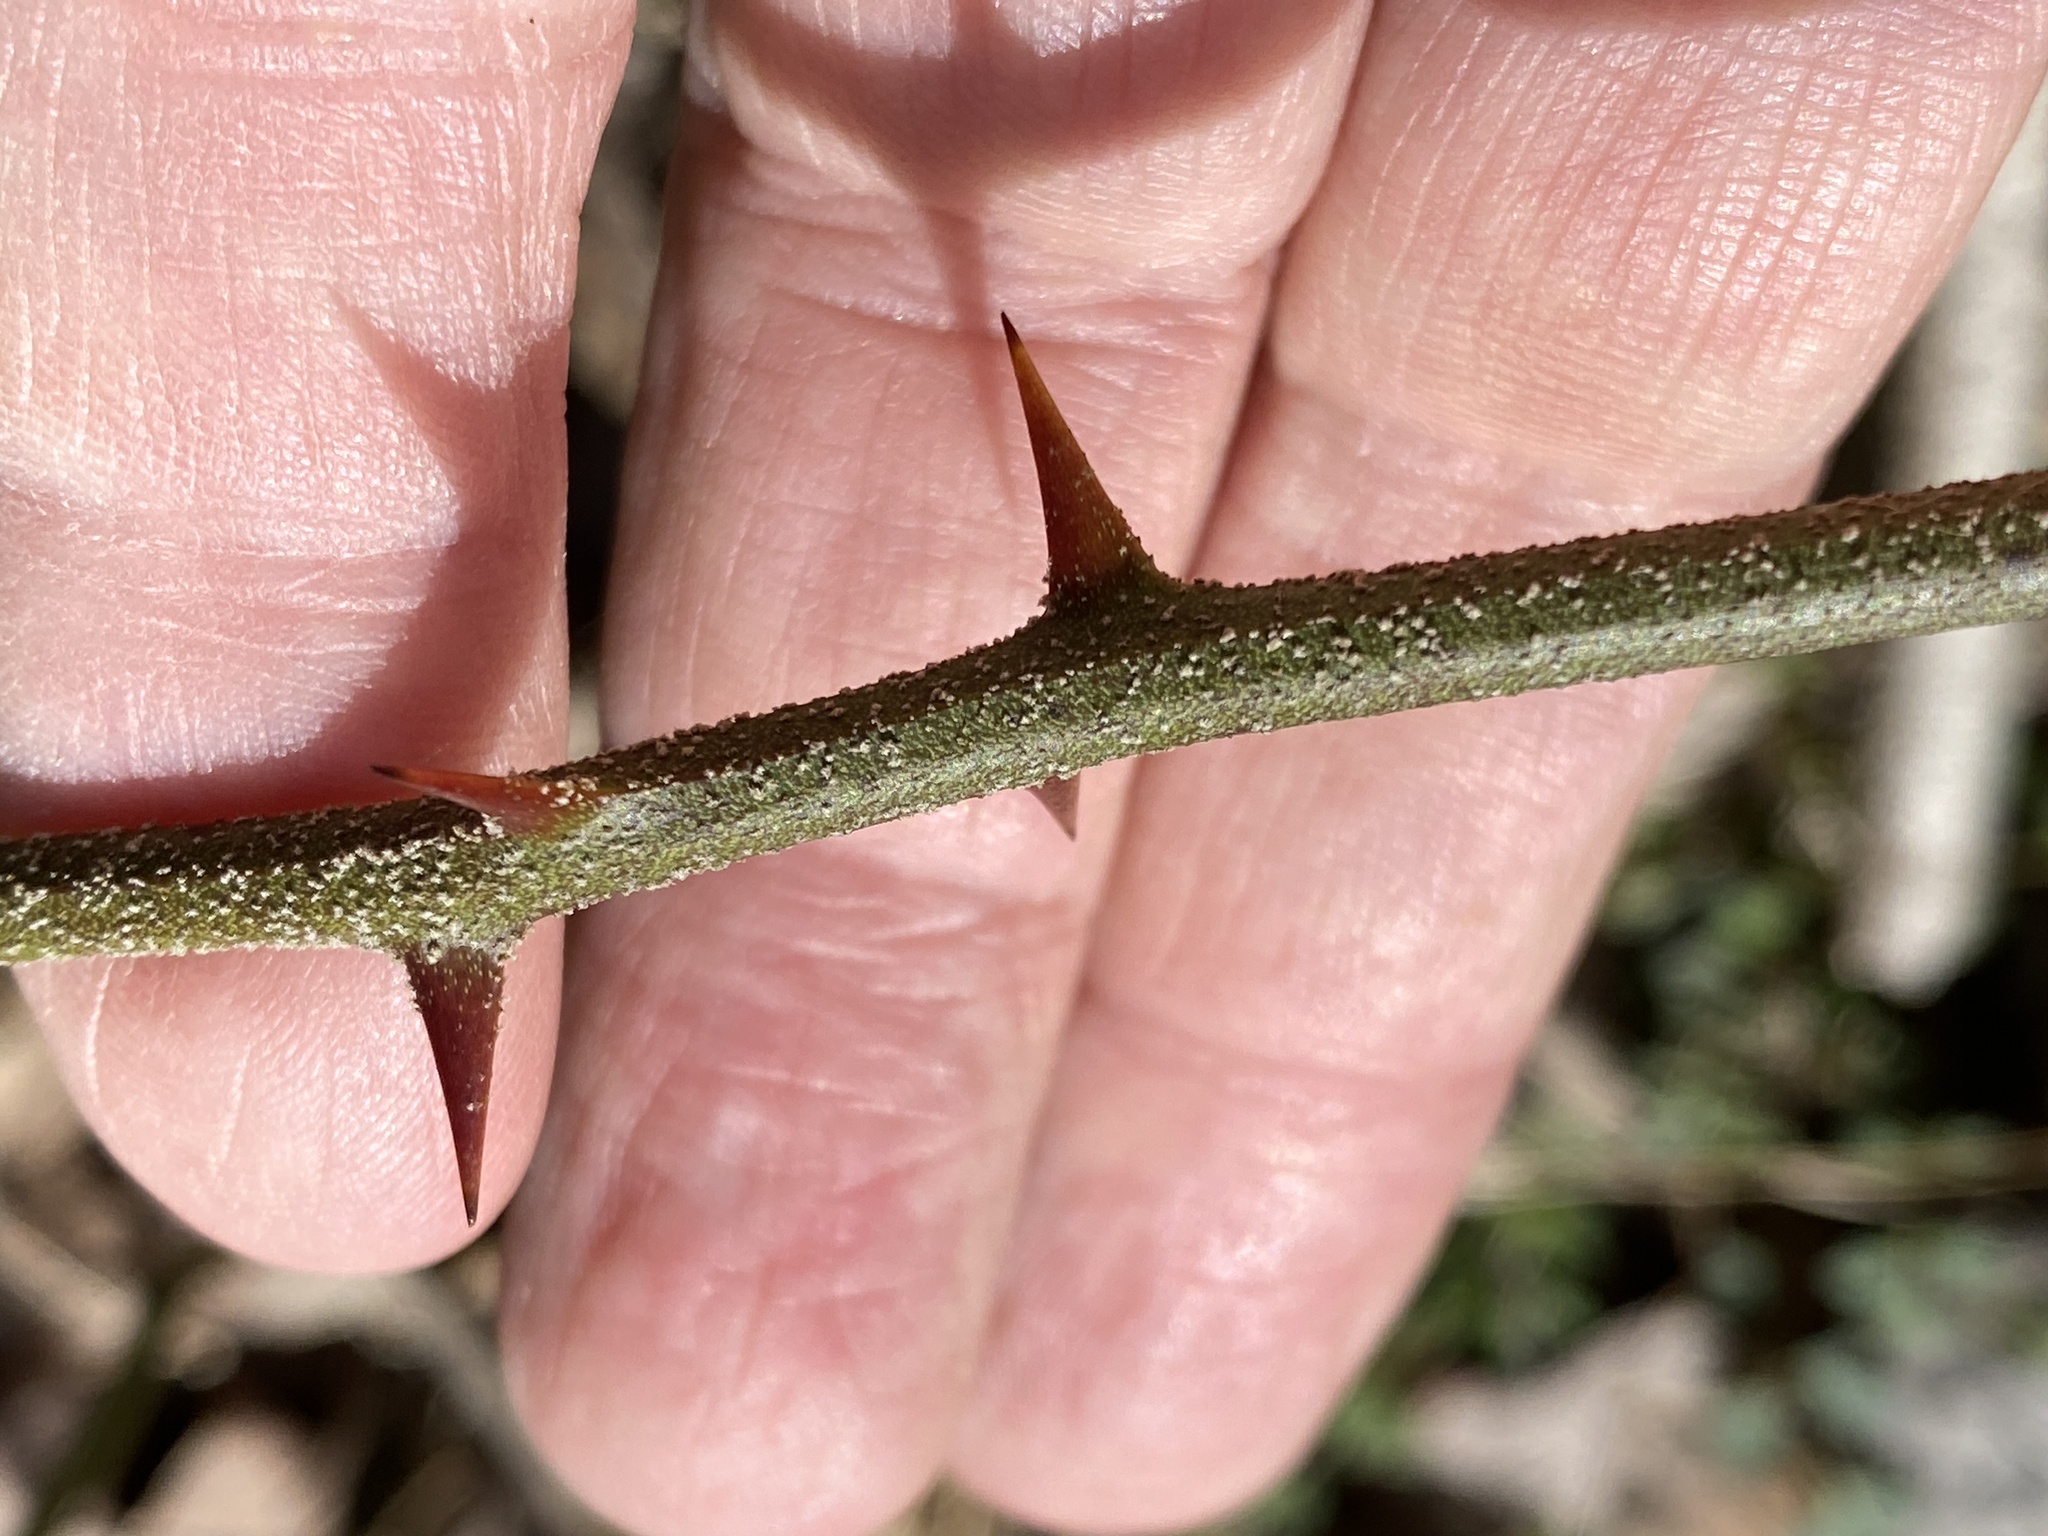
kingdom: Plantae
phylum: Tracheophyta
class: Liliopsida
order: Liliales
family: Smilacaceae
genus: Smilax
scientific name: Smilax bona-nox
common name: Catbrier
